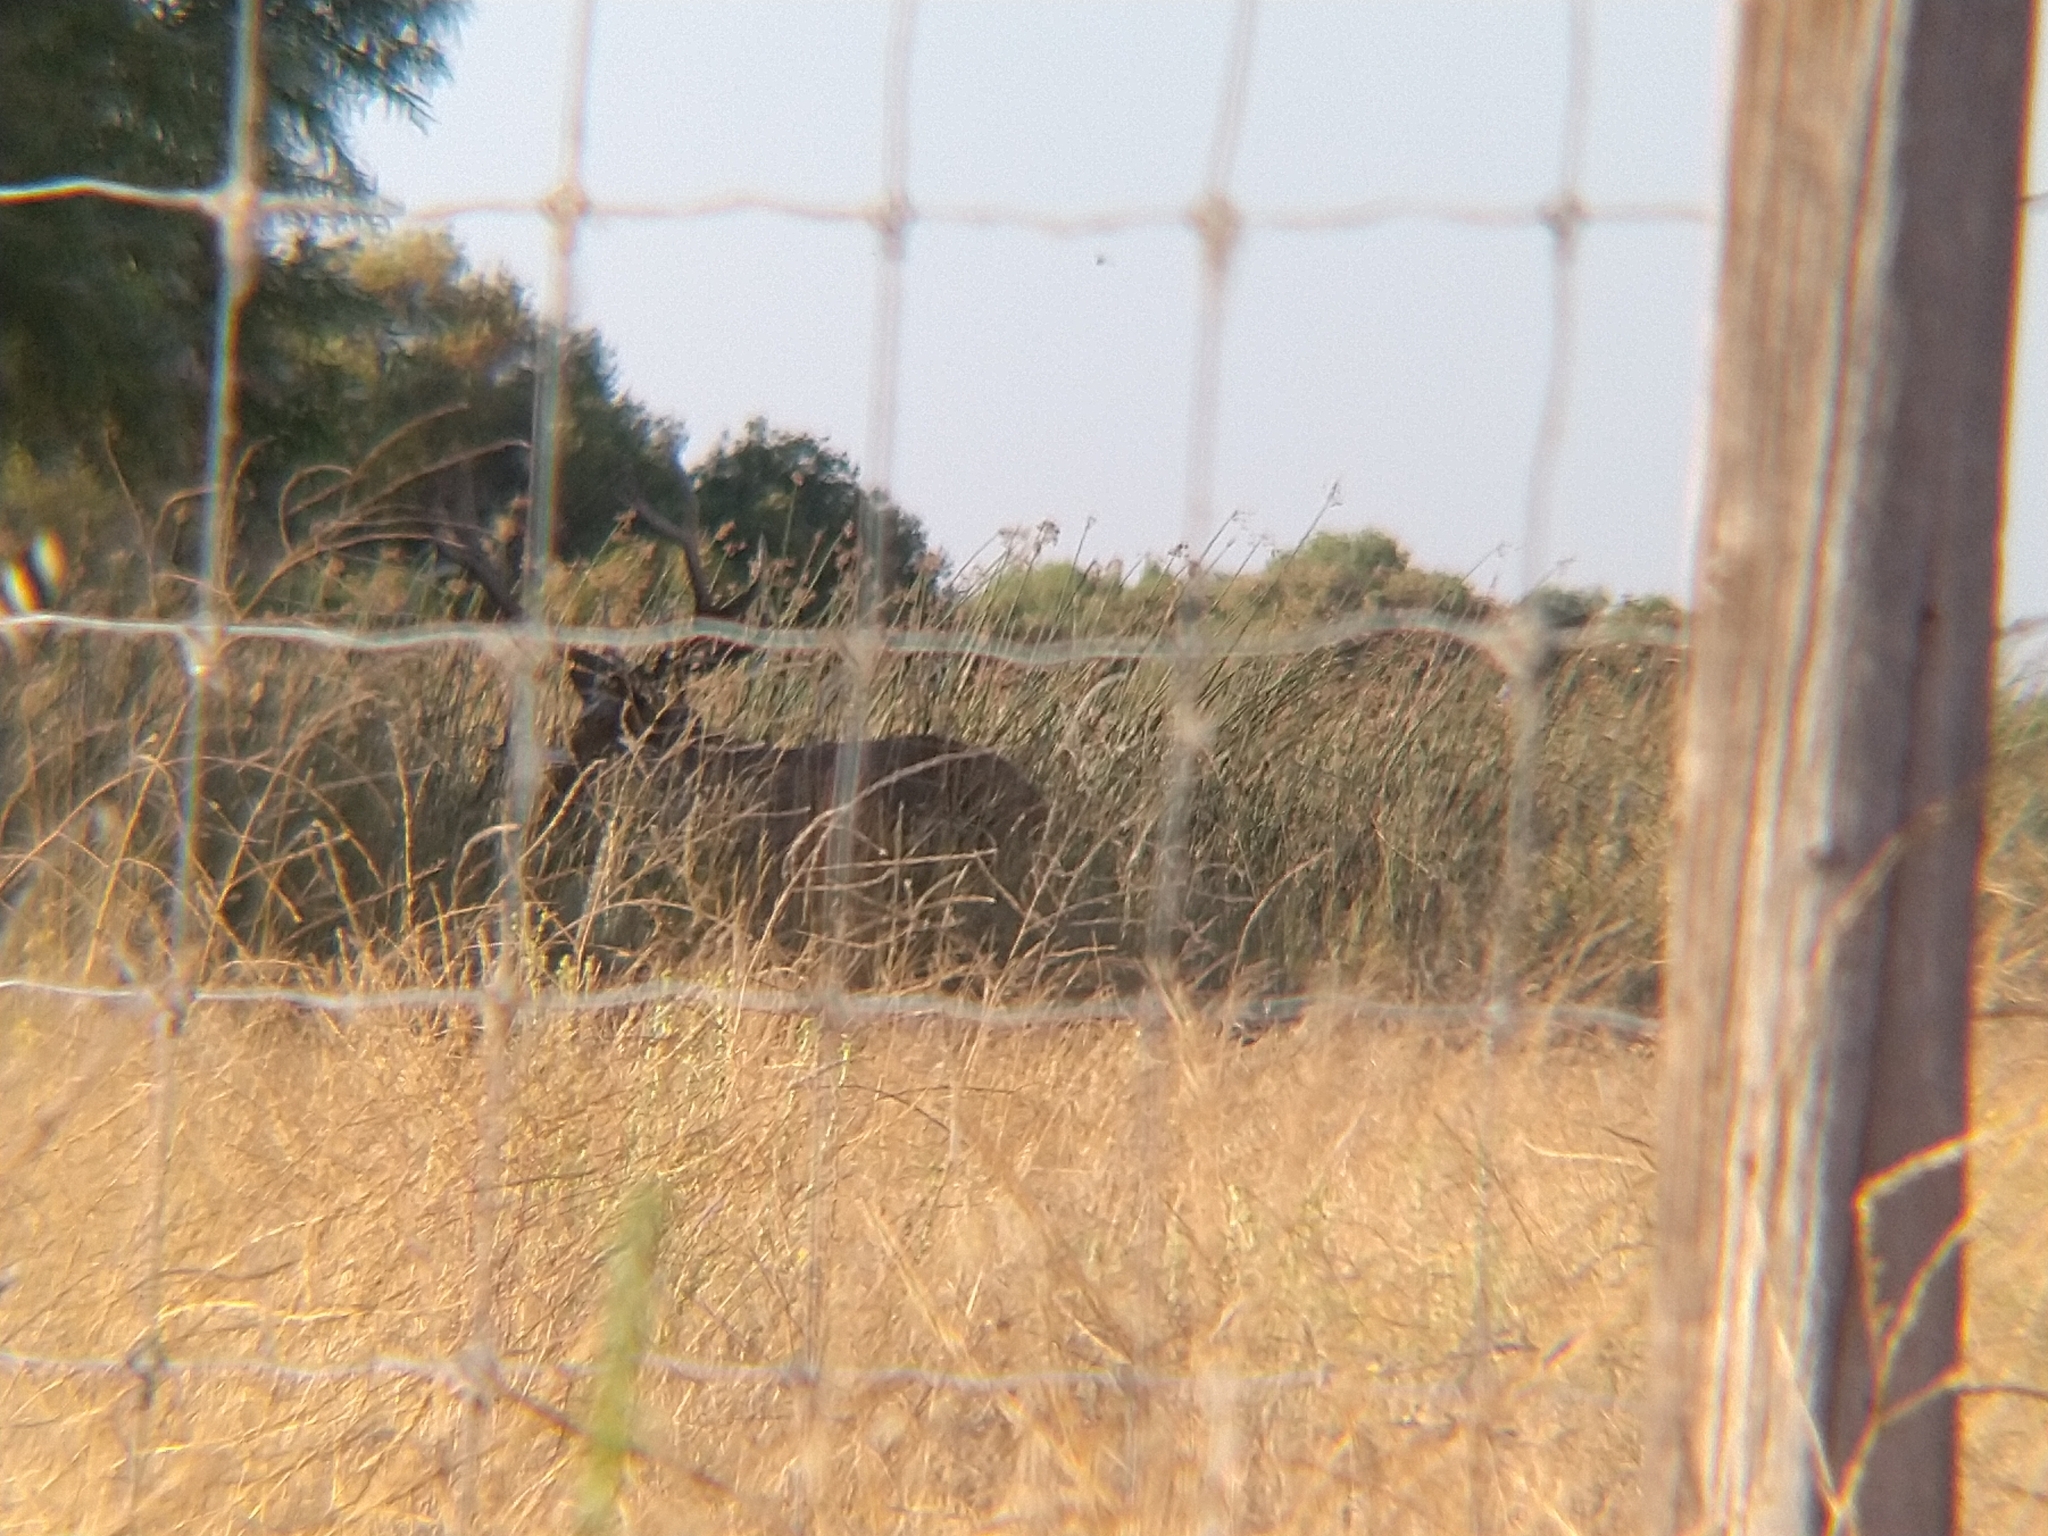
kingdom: Animalia
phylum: Chordata
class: Mammalia
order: Artiodactyla
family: Cervidae
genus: Cervus
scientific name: Cervus elaphus
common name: Red deer
